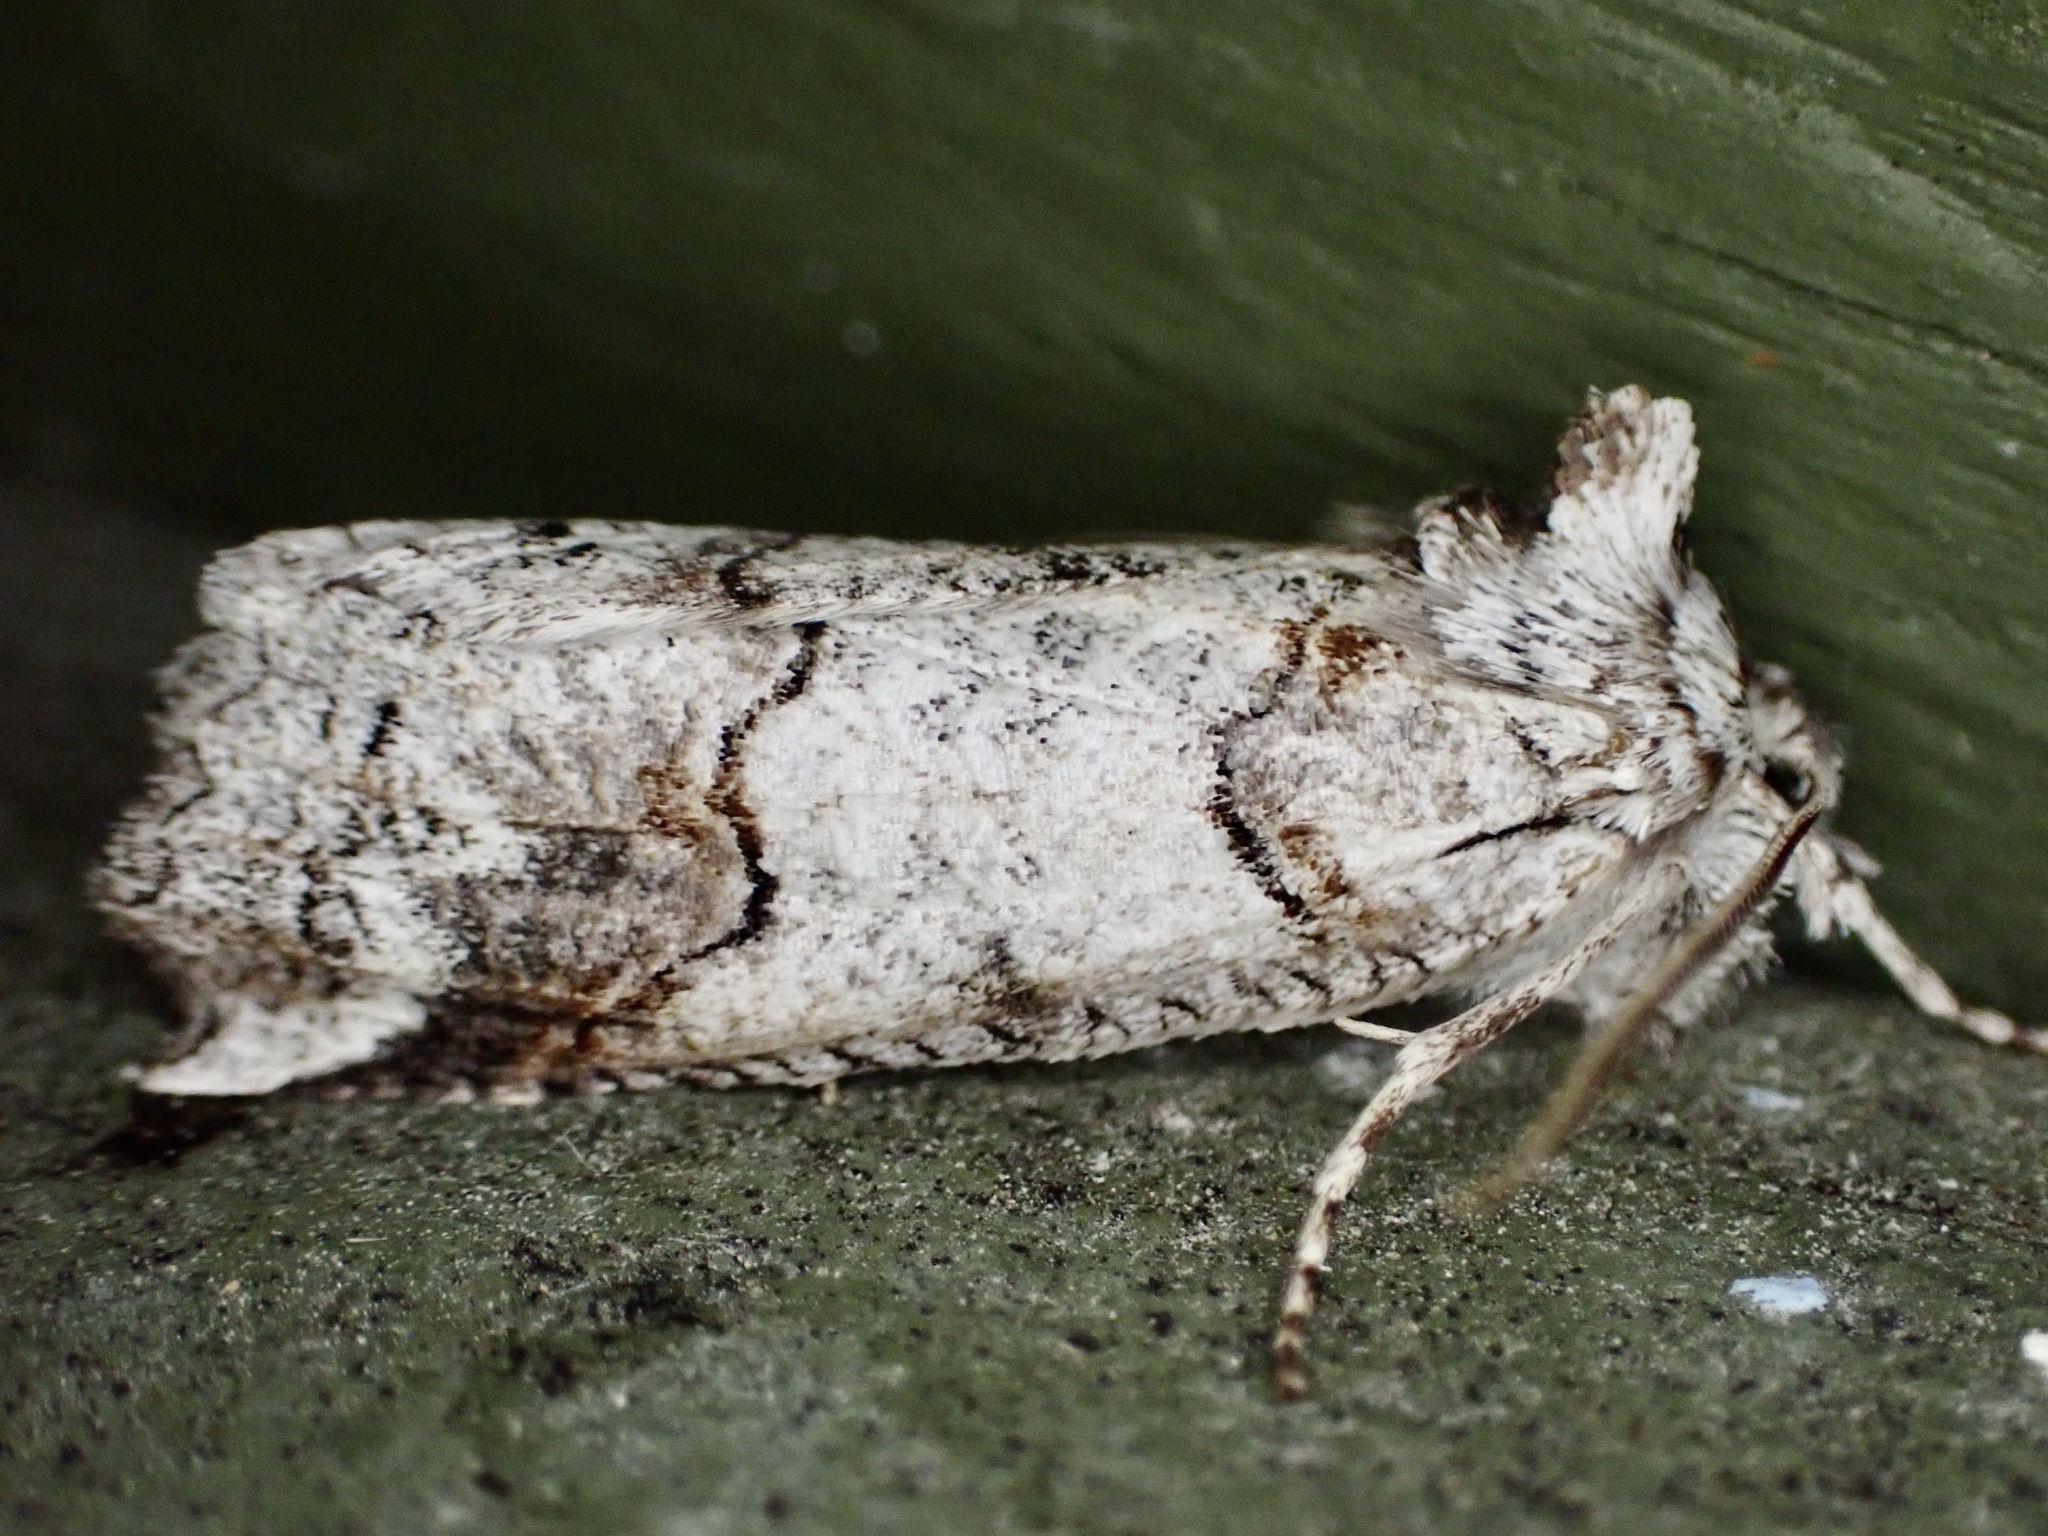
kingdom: Animalia
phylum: Arthropoda
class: Insecta
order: Lepidoptera
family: Geometridae
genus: Declana
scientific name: Declana
